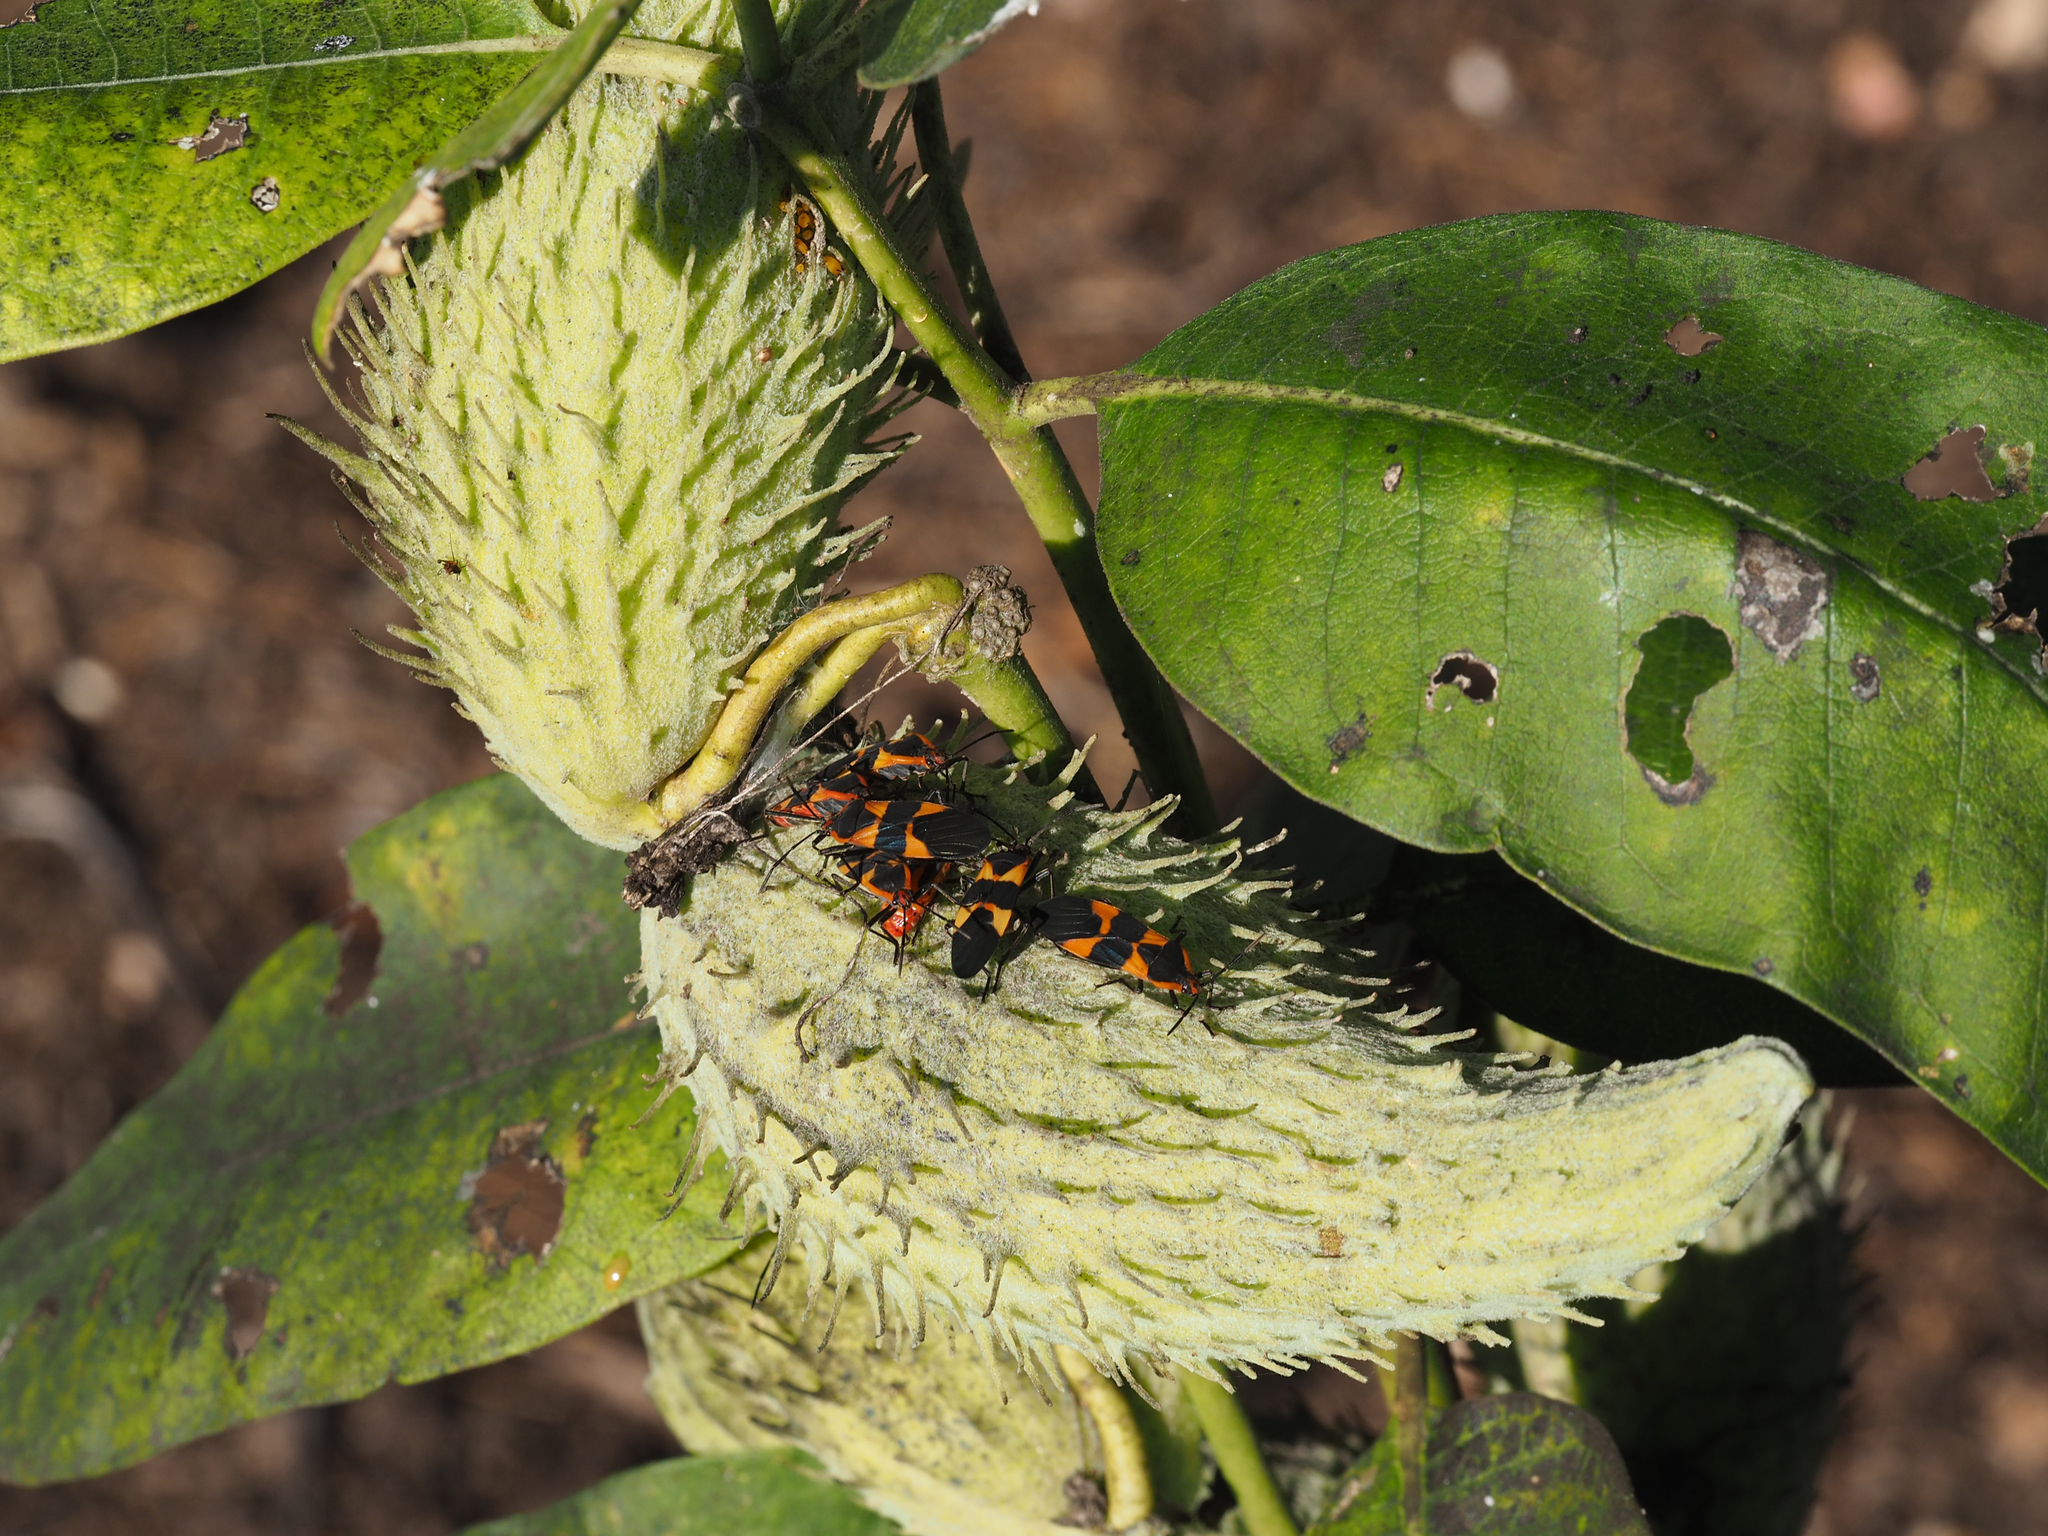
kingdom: Animalia
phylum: Arthropoda
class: Insecta
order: Hemiptera
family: Lygaeidae
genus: Oncopeltus
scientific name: Oncopeltus fasciatus
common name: Large milkweed bug
